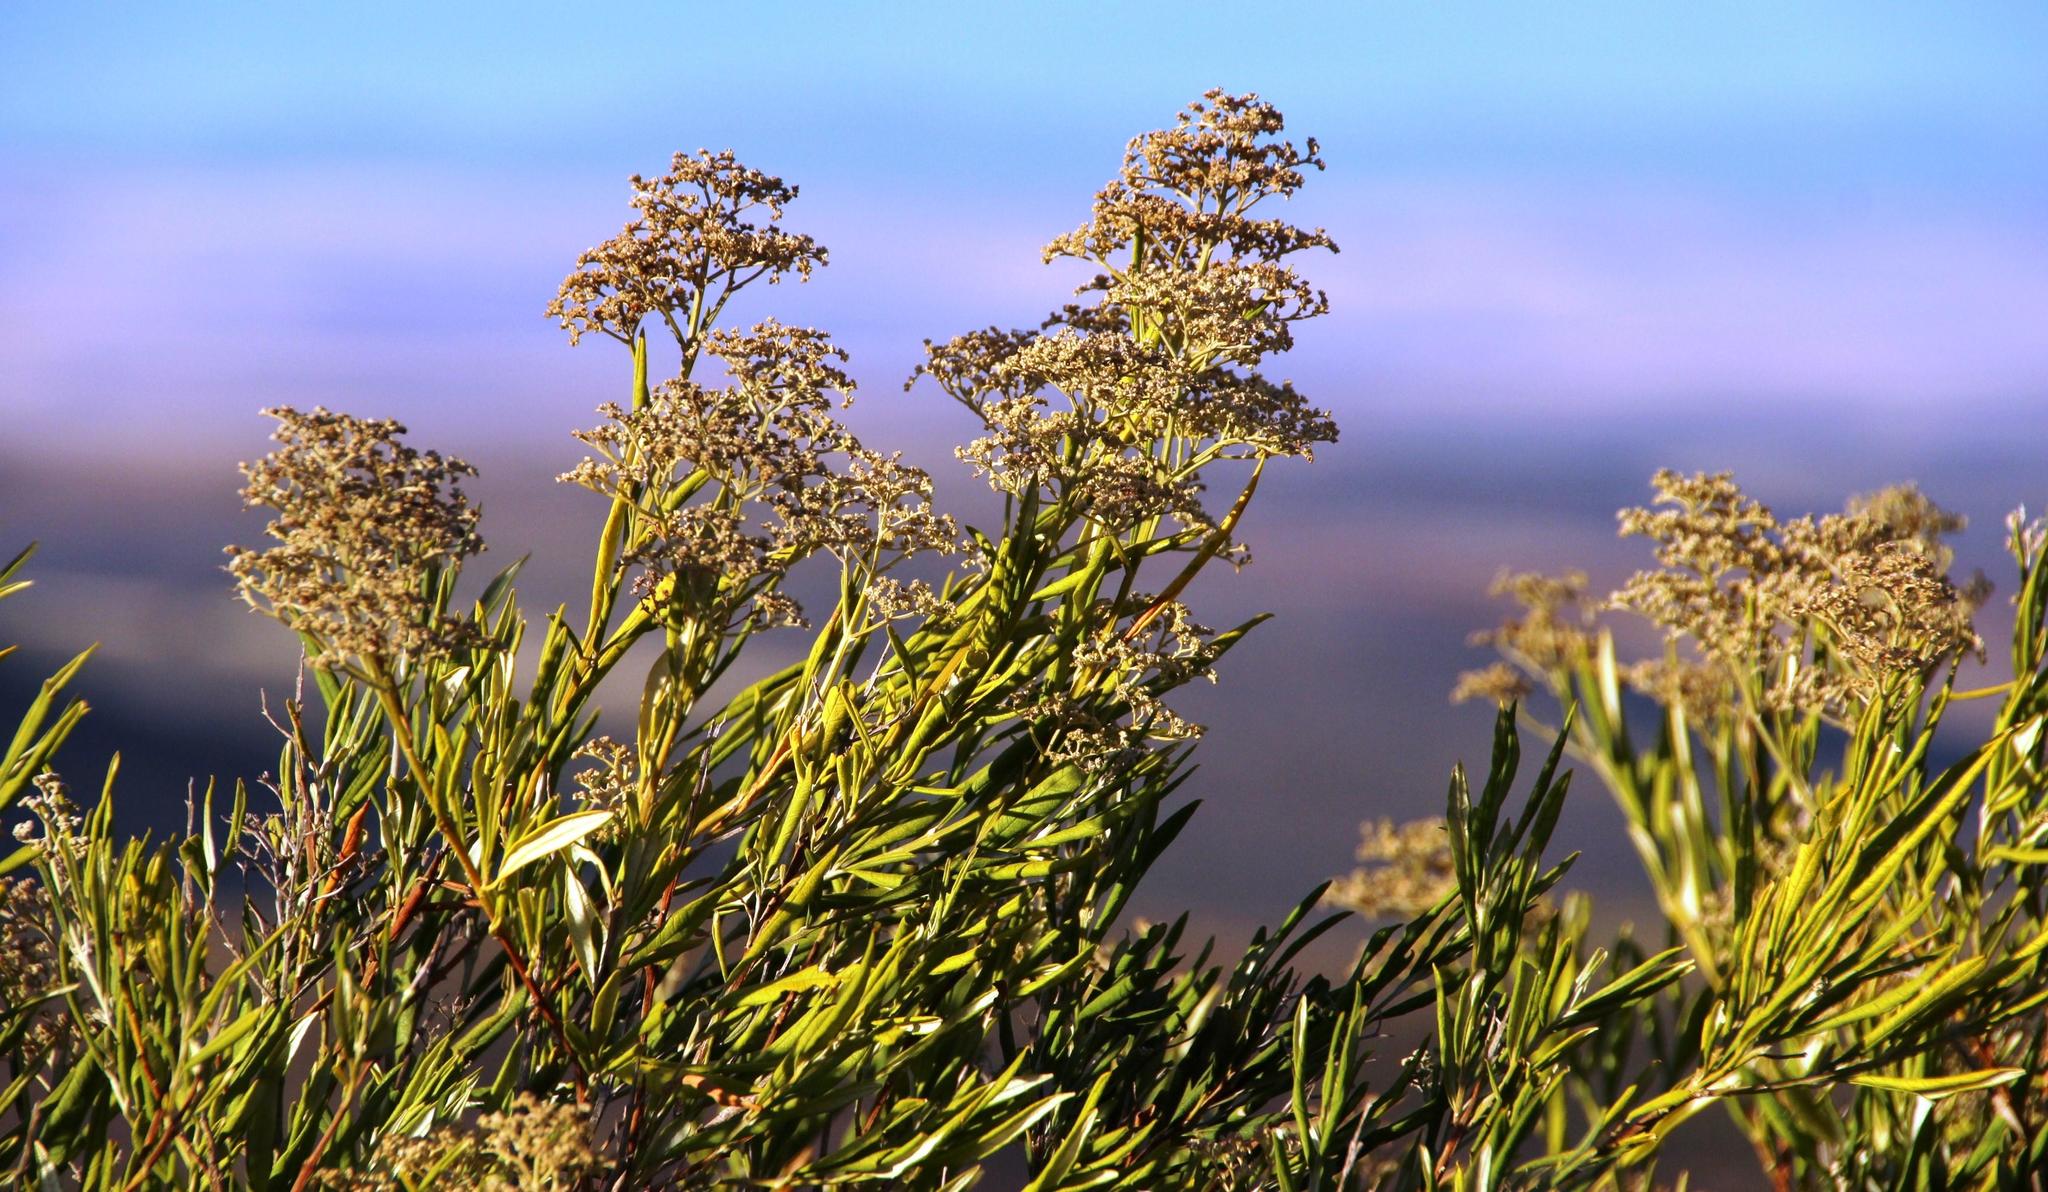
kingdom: Plantae
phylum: Tracheophyta
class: Magnoliopsida
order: Lamiales
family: Scrophulariaceae
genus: Buddleja
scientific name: Buddleja saligna
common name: False olive
